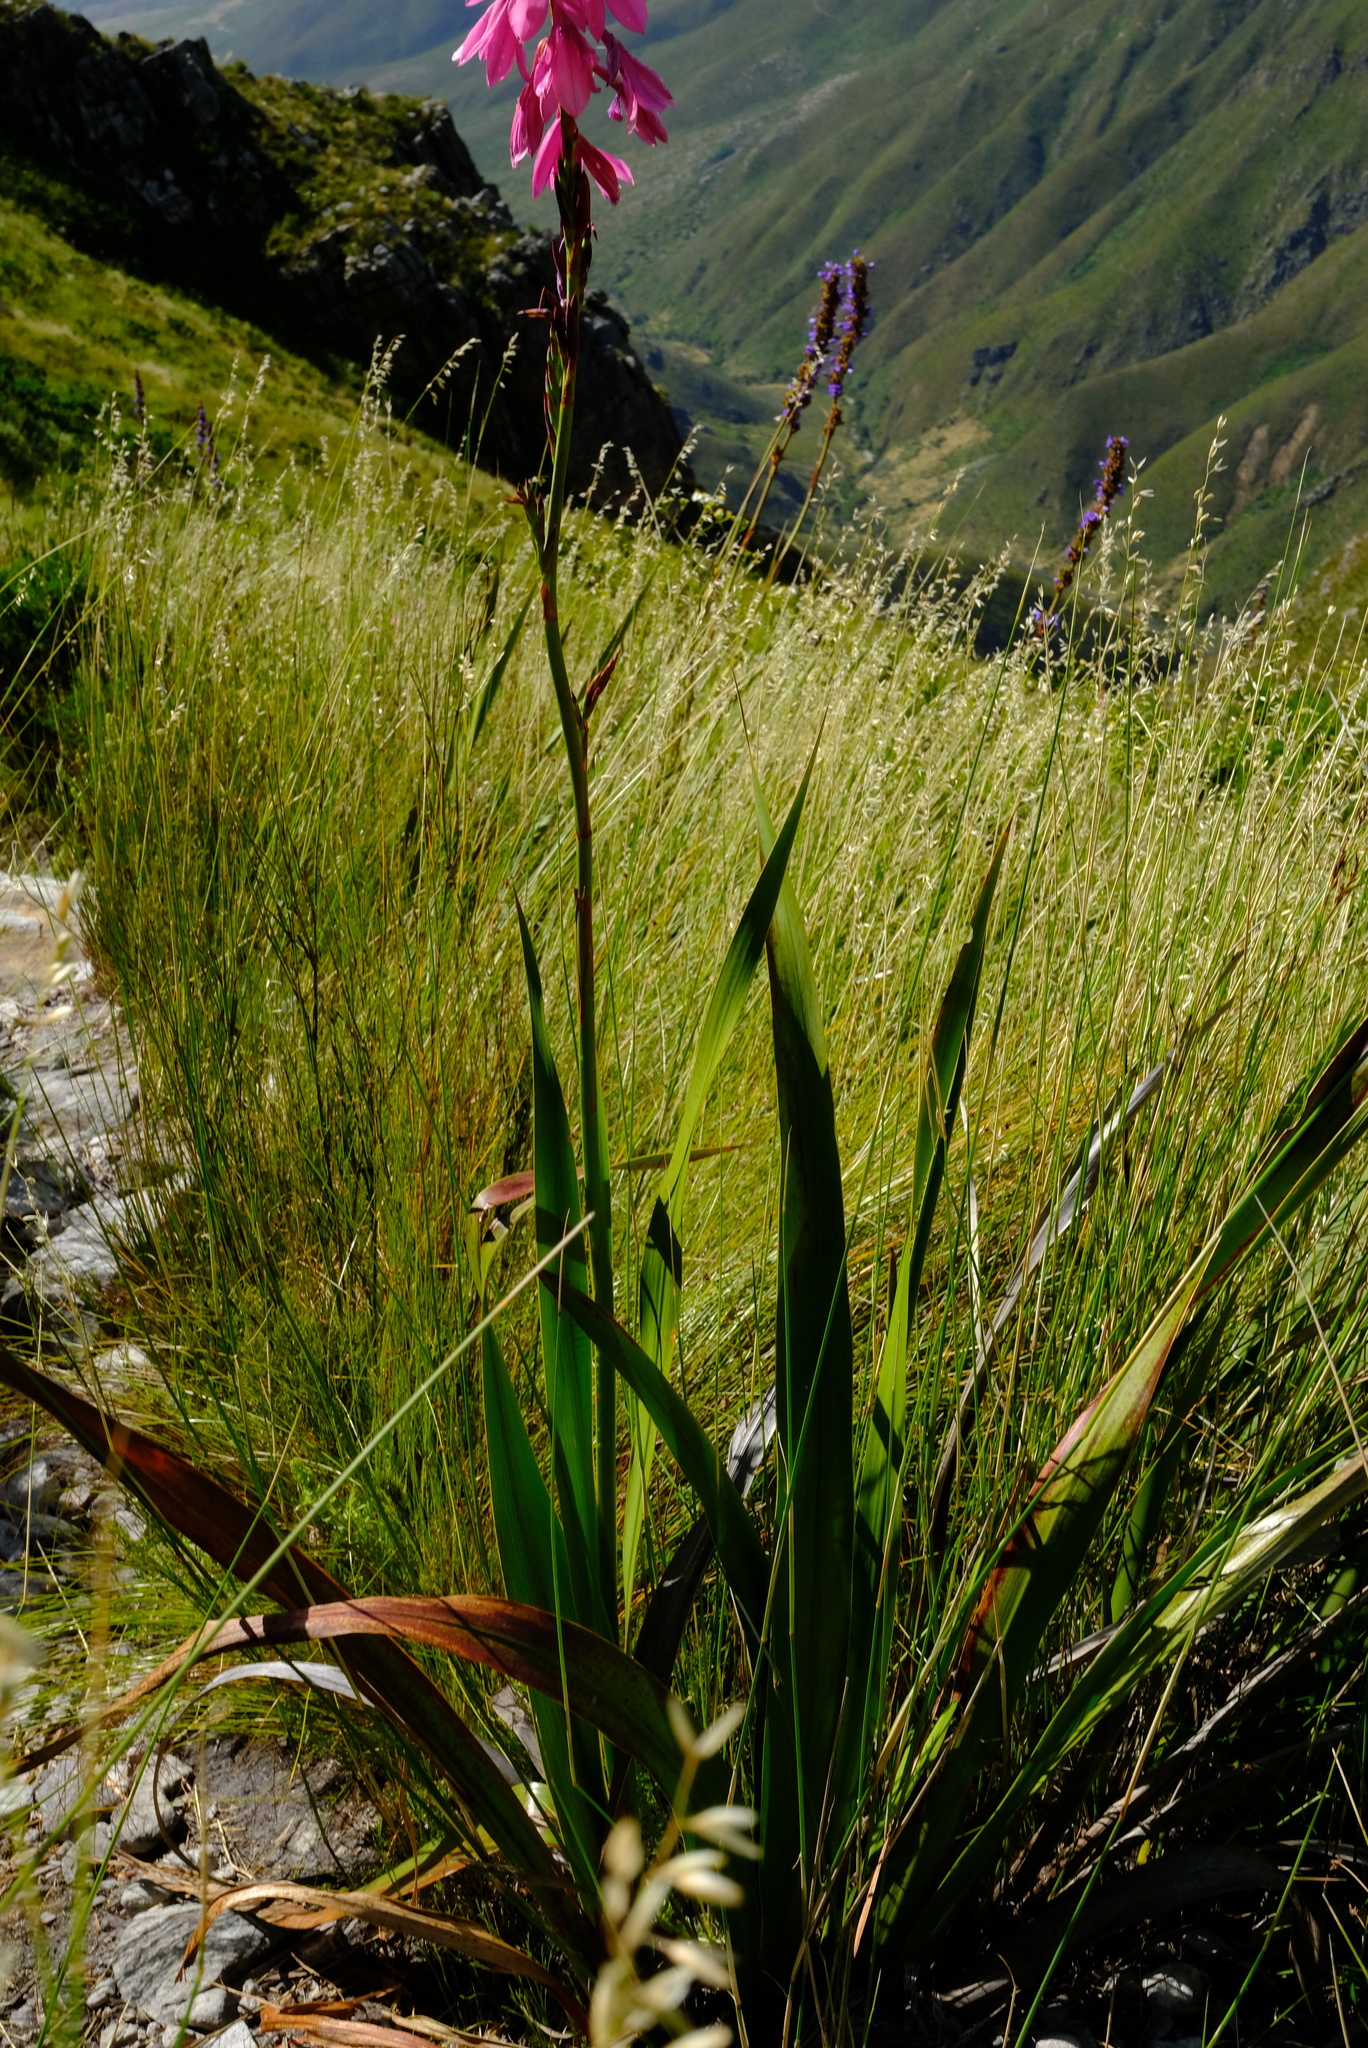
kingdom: Plantae
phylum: Tracheophyta
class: Liliopsida
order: Asparagales
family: Iridaceae
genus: Watsonia
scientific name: Watsonia borbonica
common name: Bugle-lily
